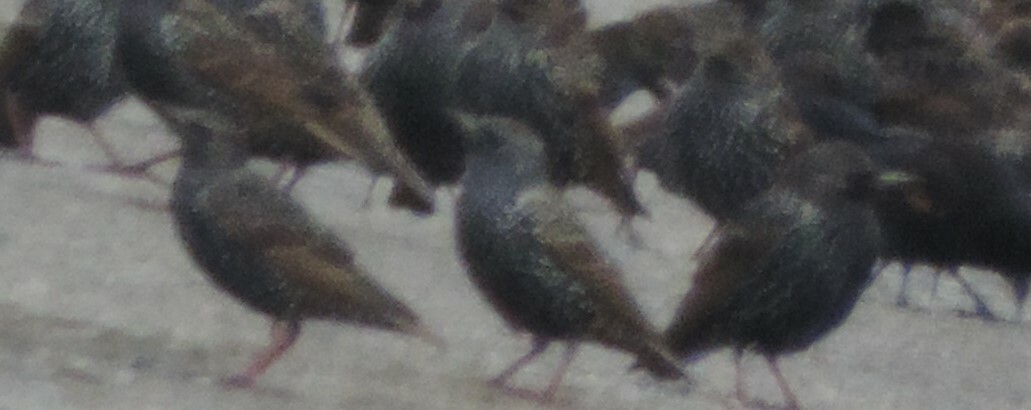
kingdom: Animalia
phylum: Chordata
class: Aves
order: Passeriformes
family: Sturnidae
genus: Sturnus
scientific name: Sturnus vulgaris
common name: Common starling
